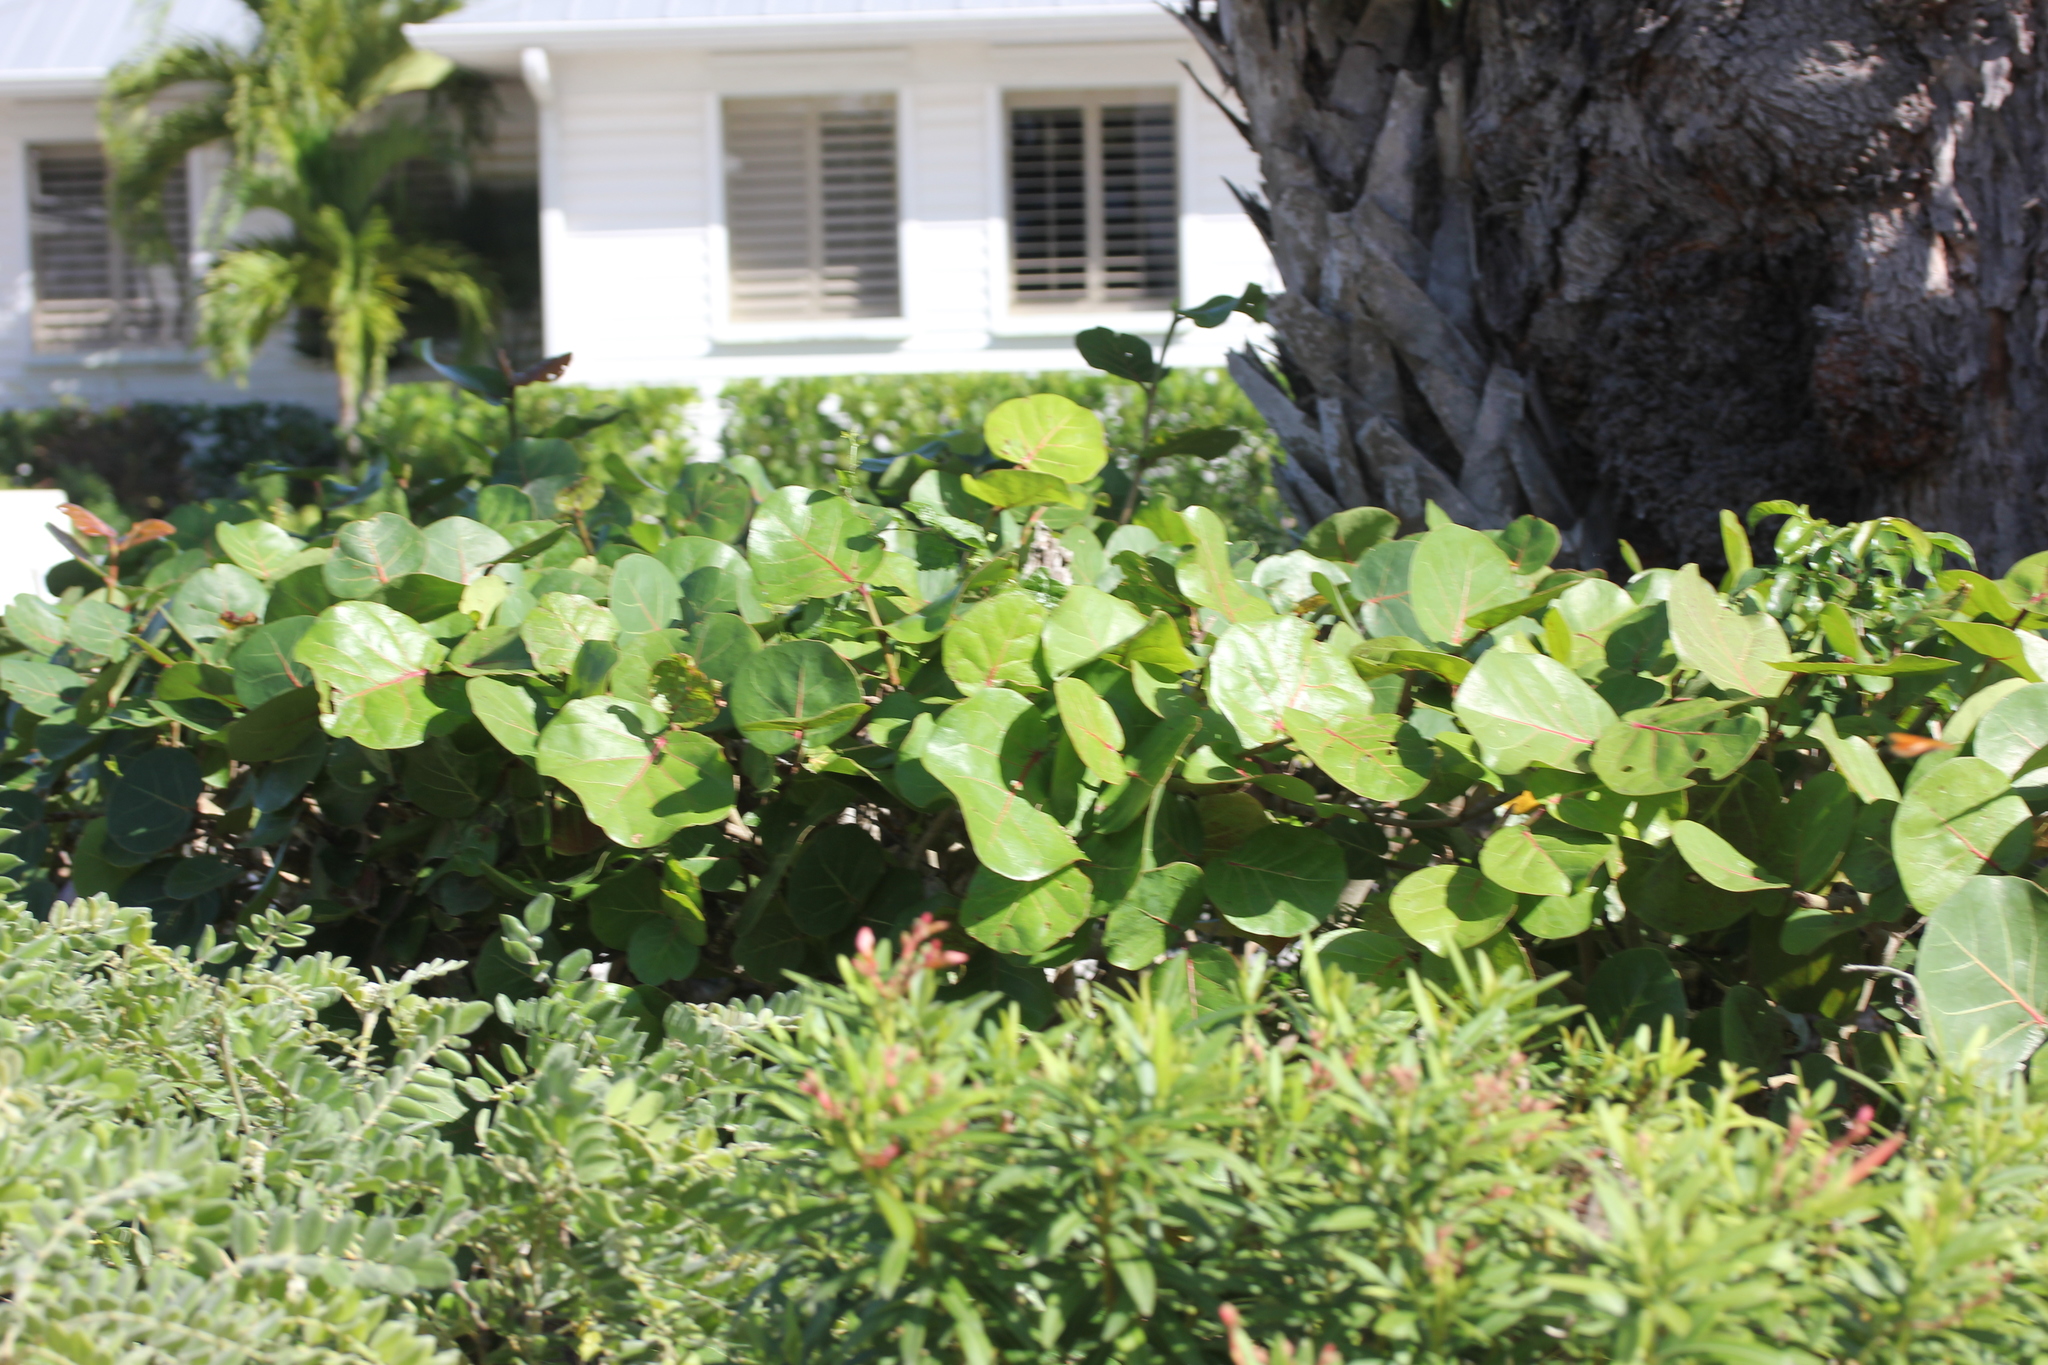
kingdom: Plantae
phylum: Tracheophyta
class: Magnoliopsida
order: Caryophyllales
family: Polygonaceae
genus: Coccoloba
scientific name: Coccoloba uvifera
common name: Seagrape
